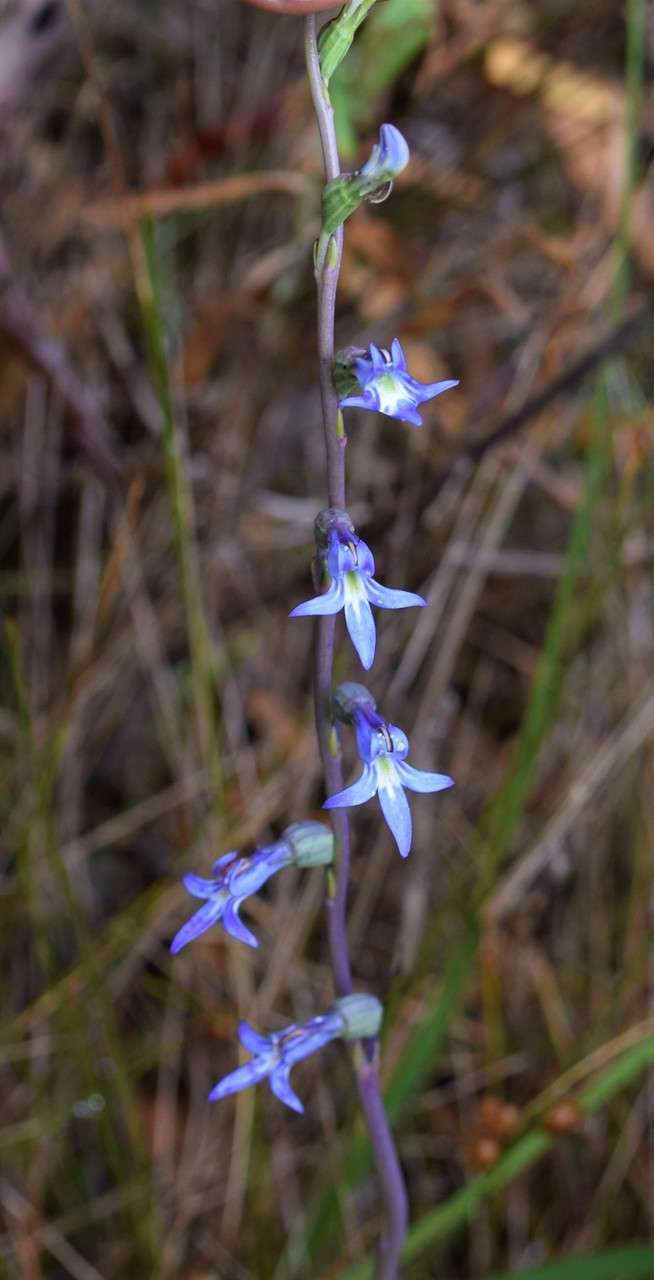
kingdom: Plantae
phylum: Tracheophyta
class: Magnoliopsida
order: Asterales
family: Campanulaceae
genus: Lobelia
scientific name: Lobelia gibbosa
